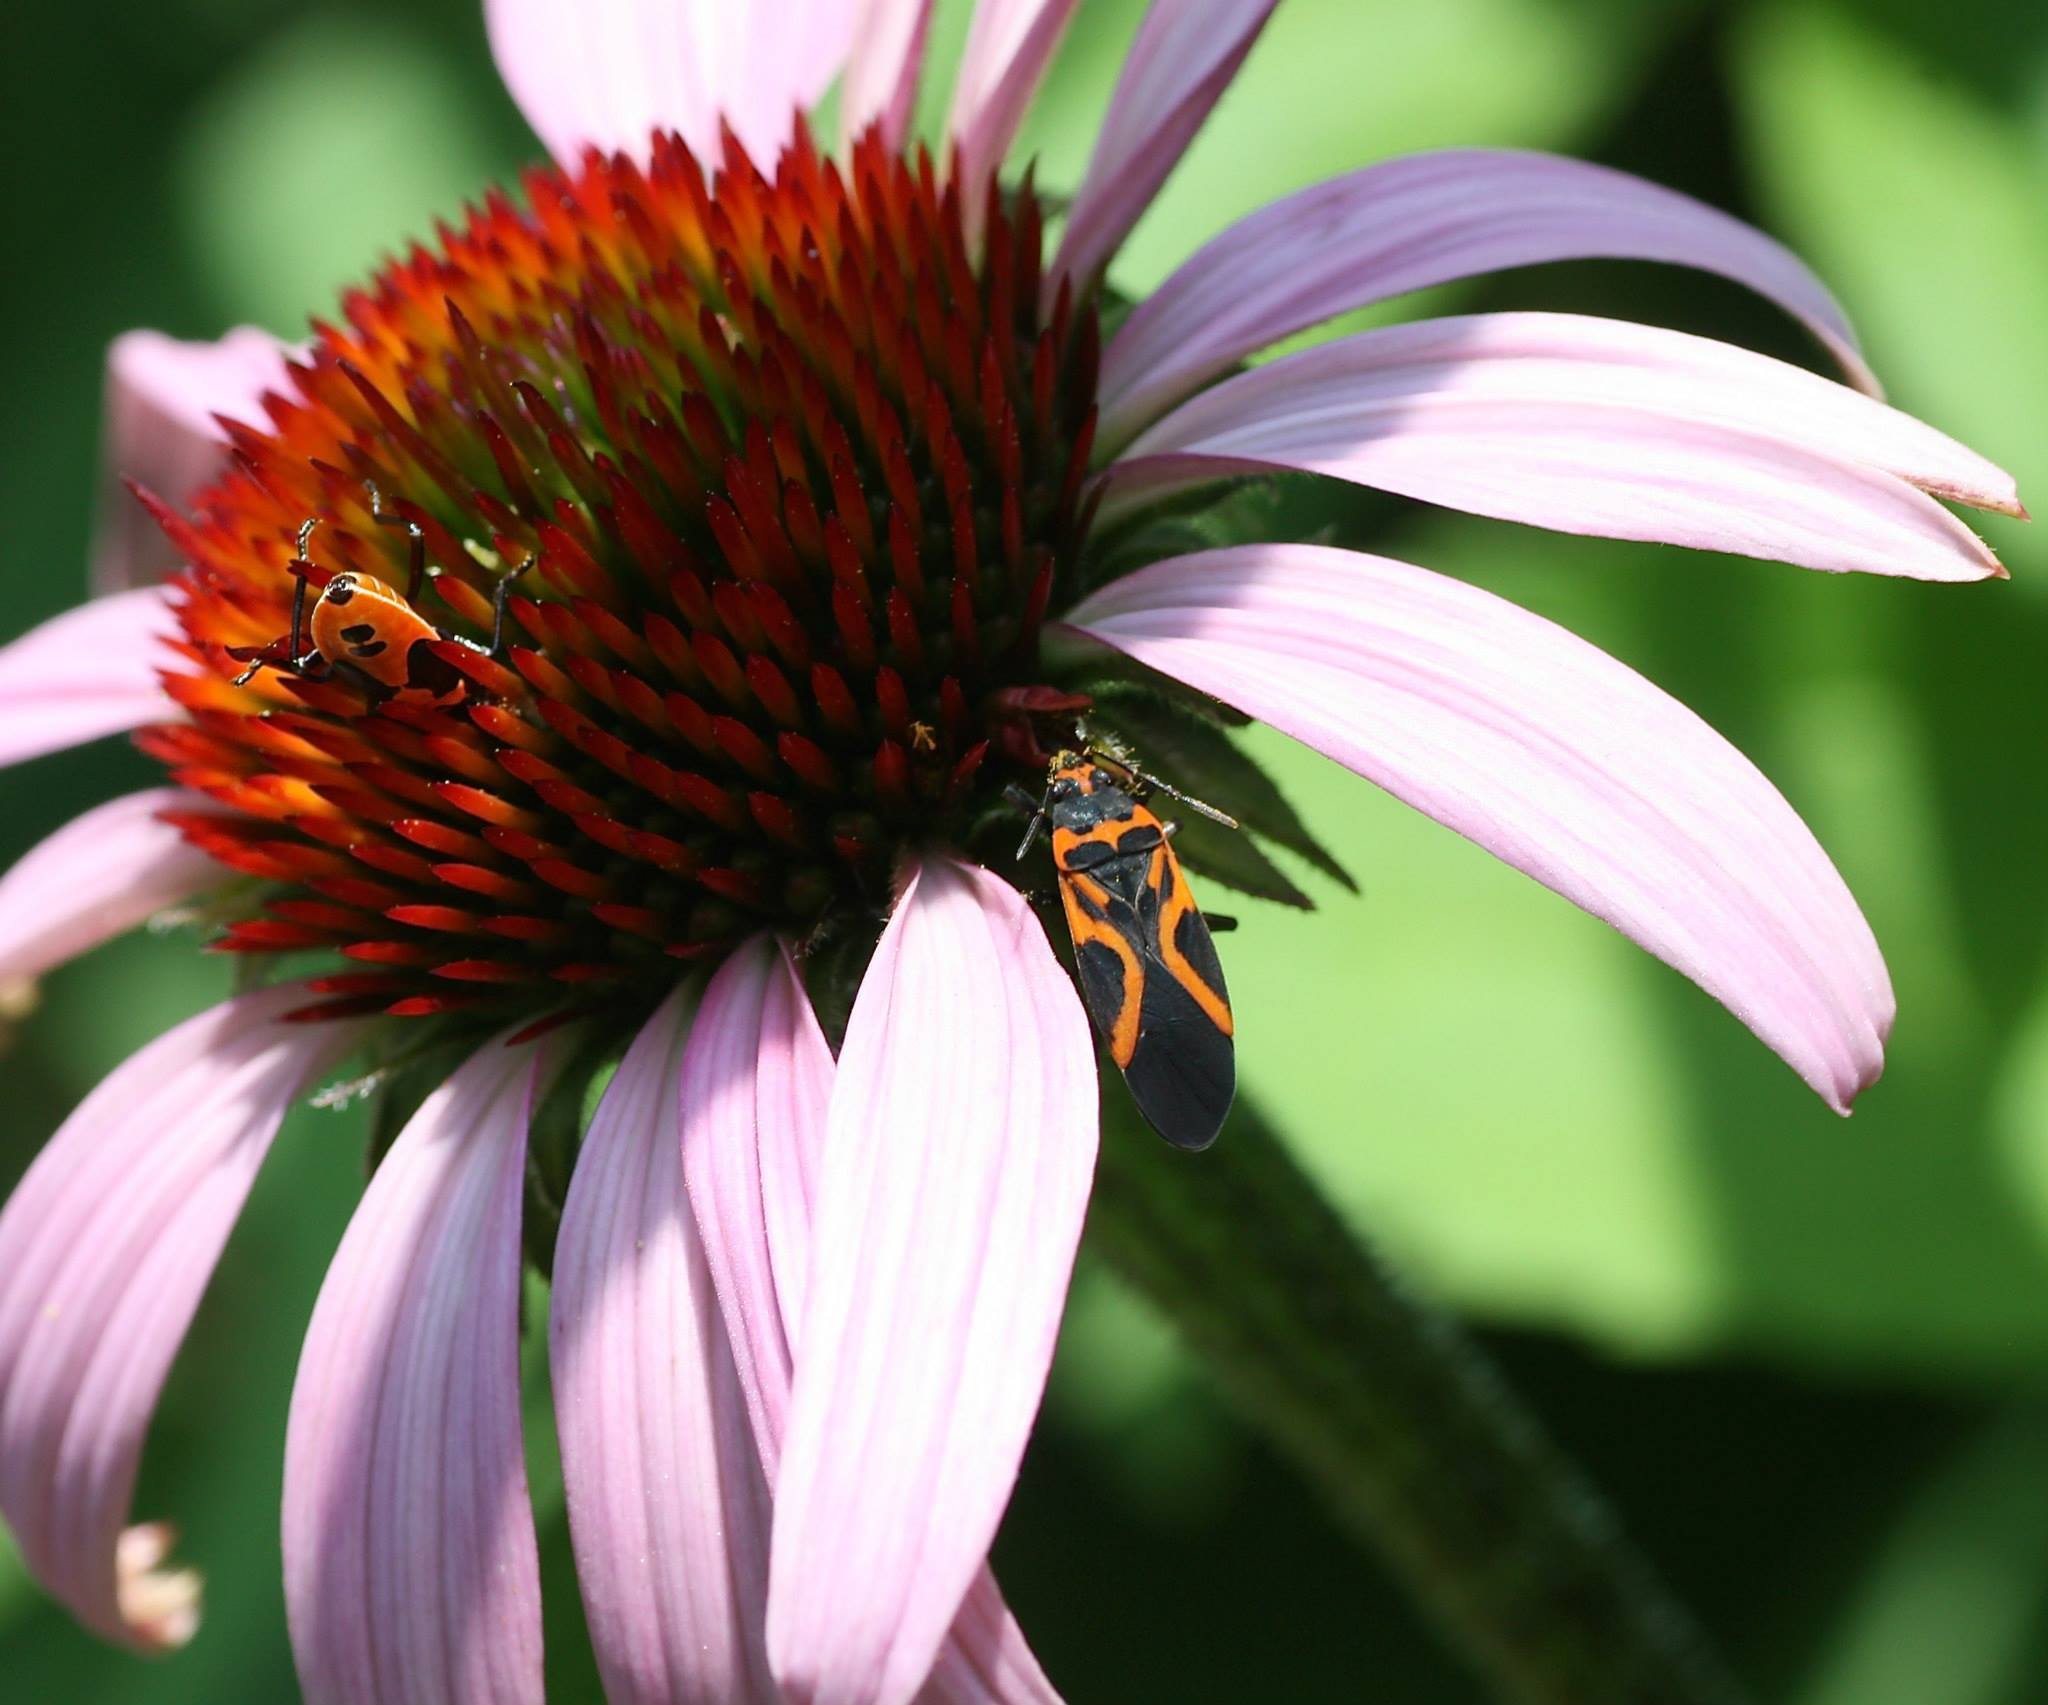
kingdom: Animalia
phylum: Arthropoda
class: Insecta
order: Hemiptera
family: Lygaeidae
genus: Lygaeus
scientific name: Lygaeus turcicus
